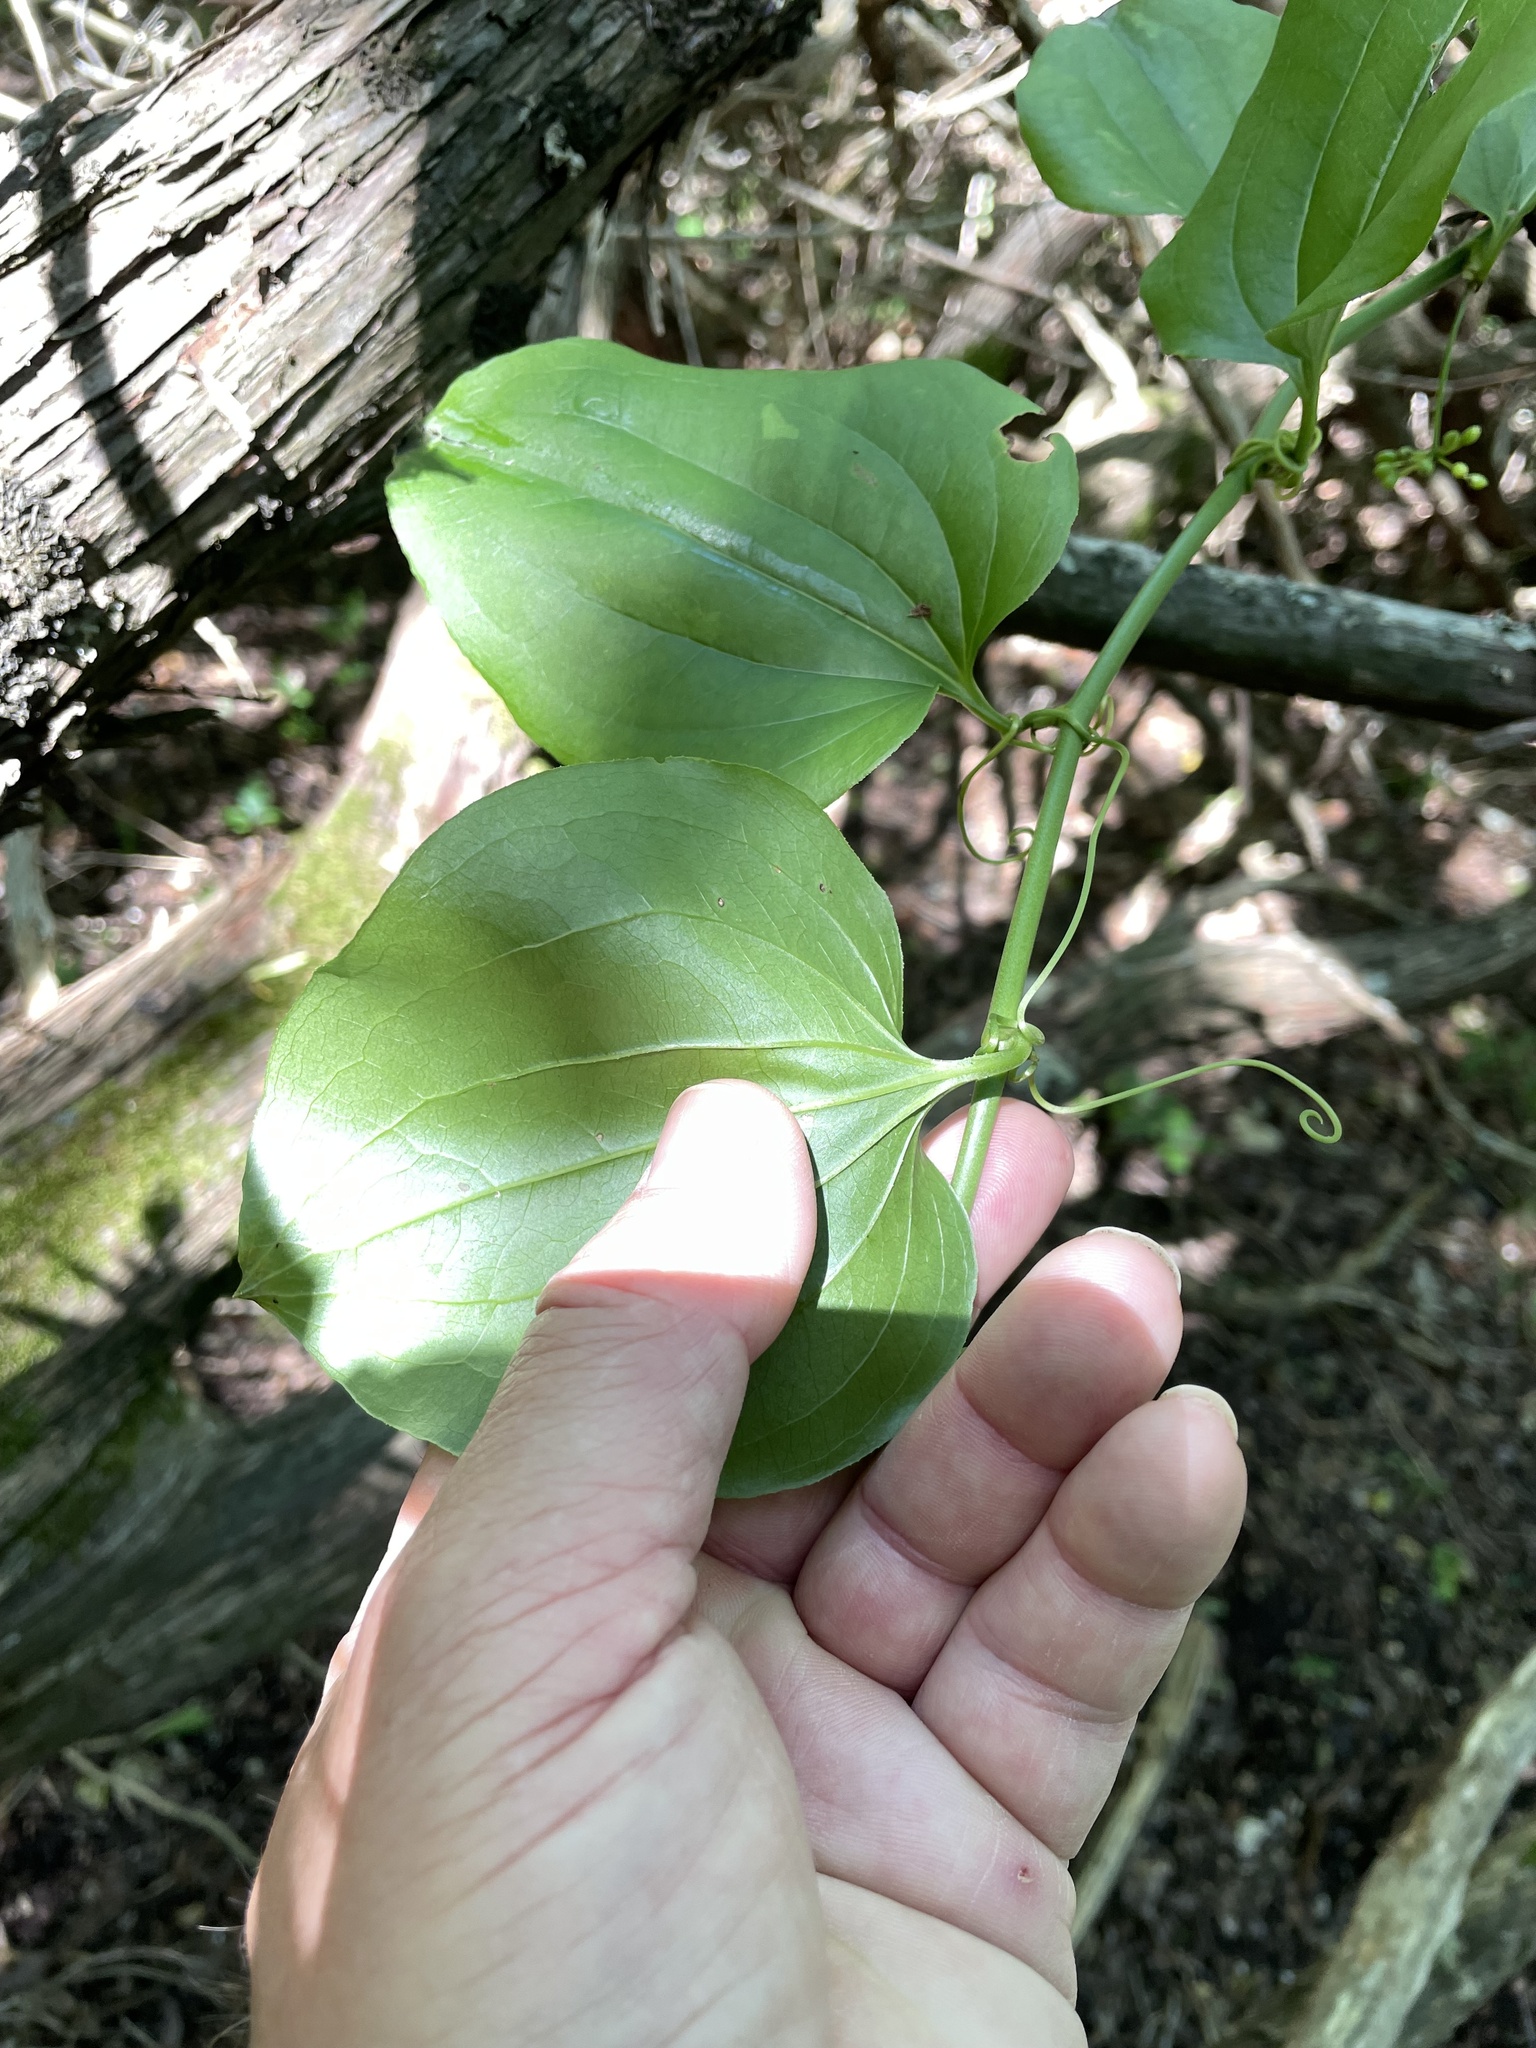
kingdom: Plantae
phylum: Tracheophyta
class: Liliopsida
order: Liliales
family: Smilacaceae
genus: Smilax
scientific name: Smilax rotundifolia
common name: Bullbriar
